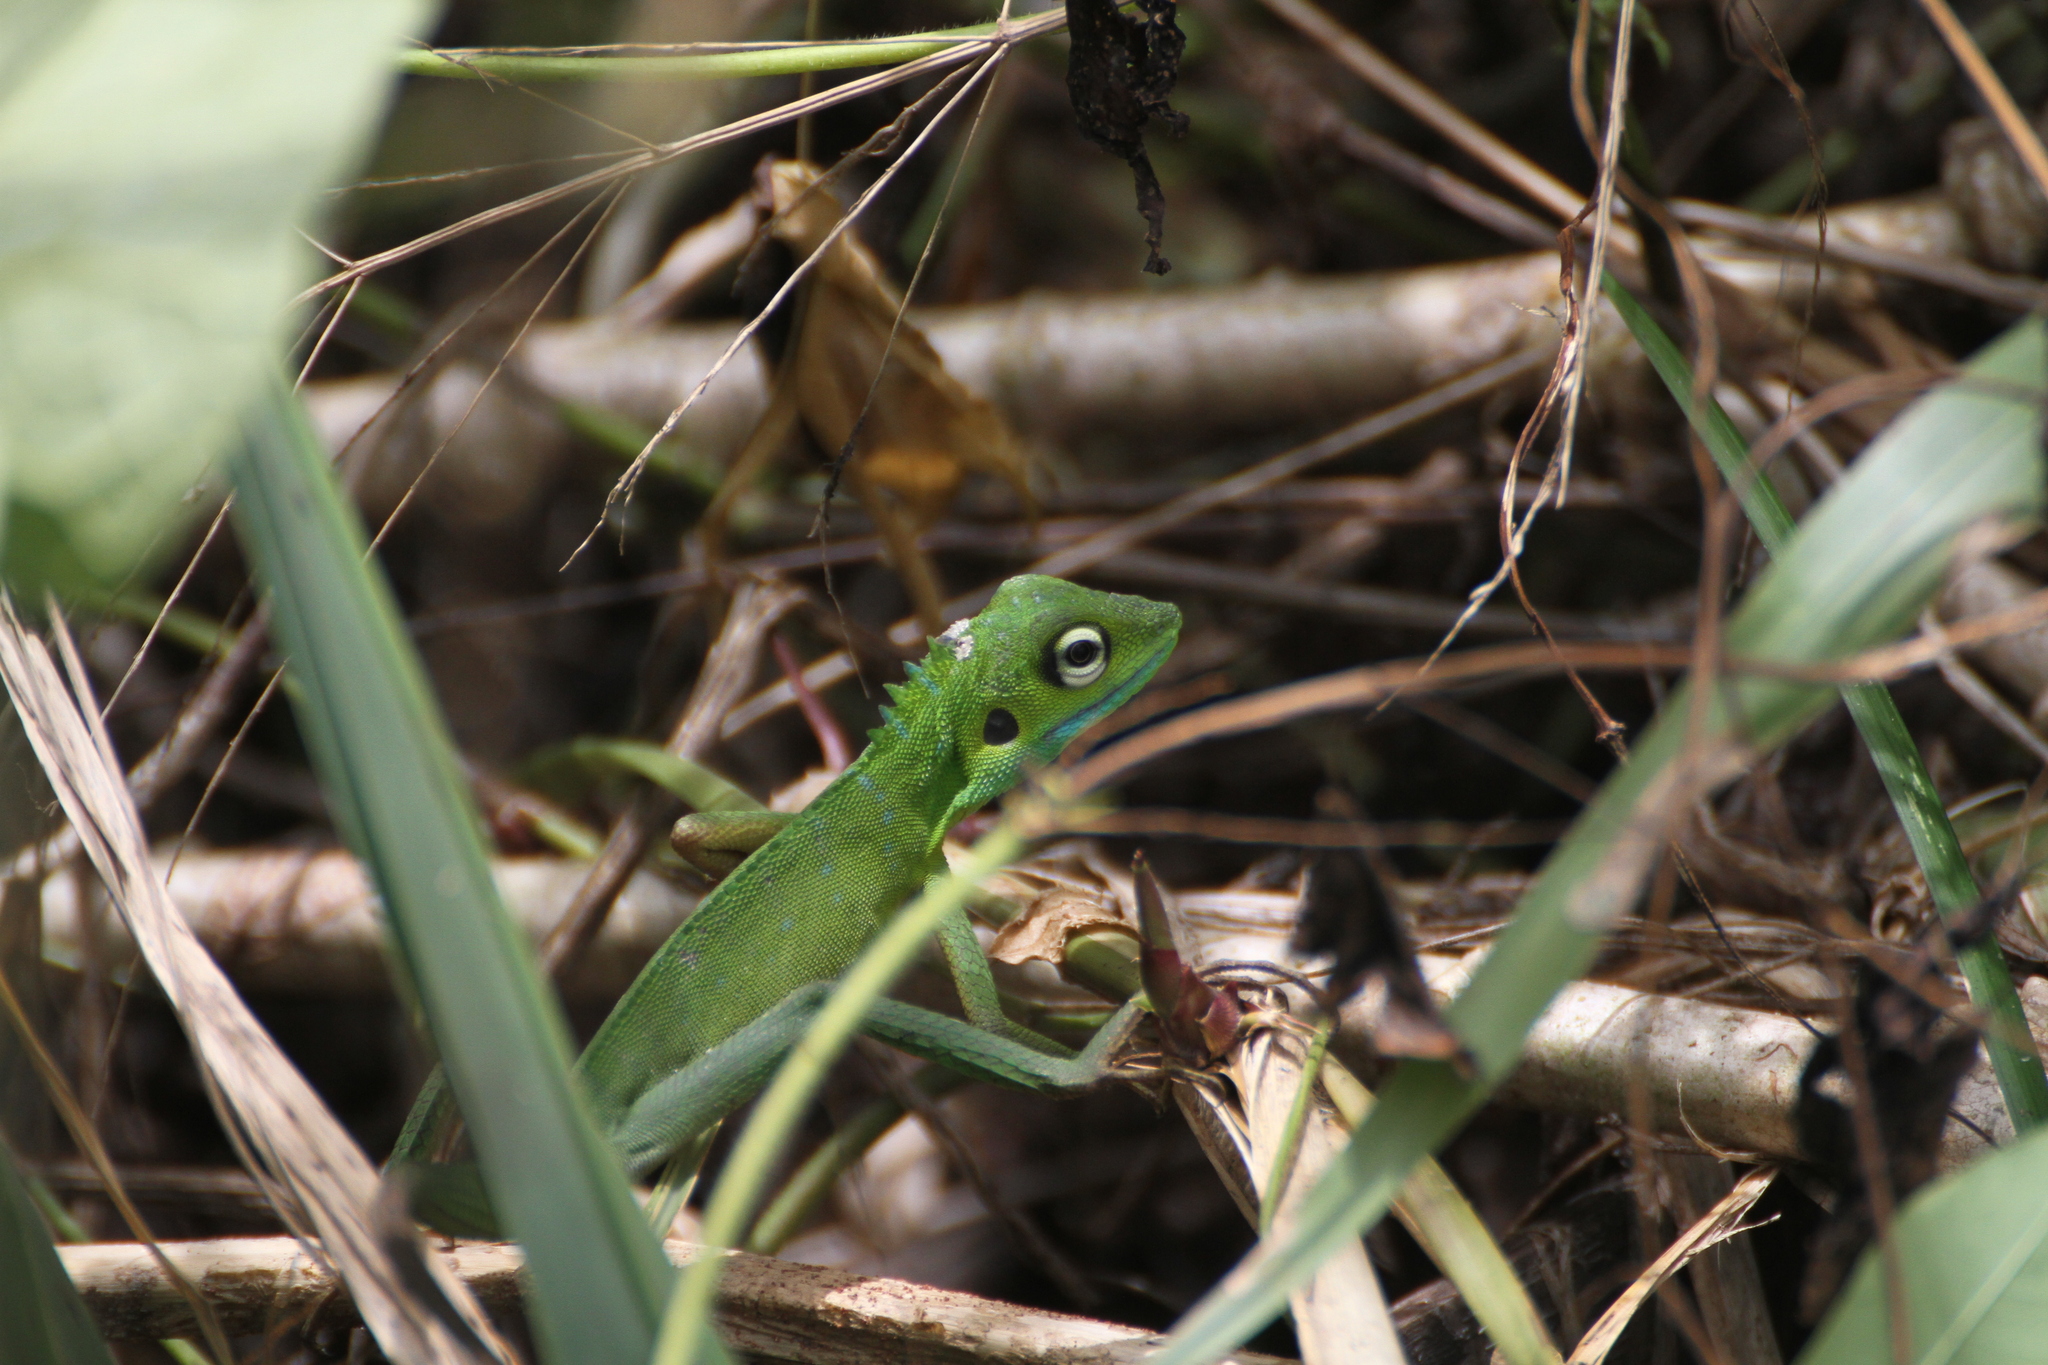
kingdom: Animalia
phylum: Chordata
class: Squamata
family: Agamidae
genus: Bronchocela
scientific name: Bronchocela cristatella
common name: Green crested lizard
